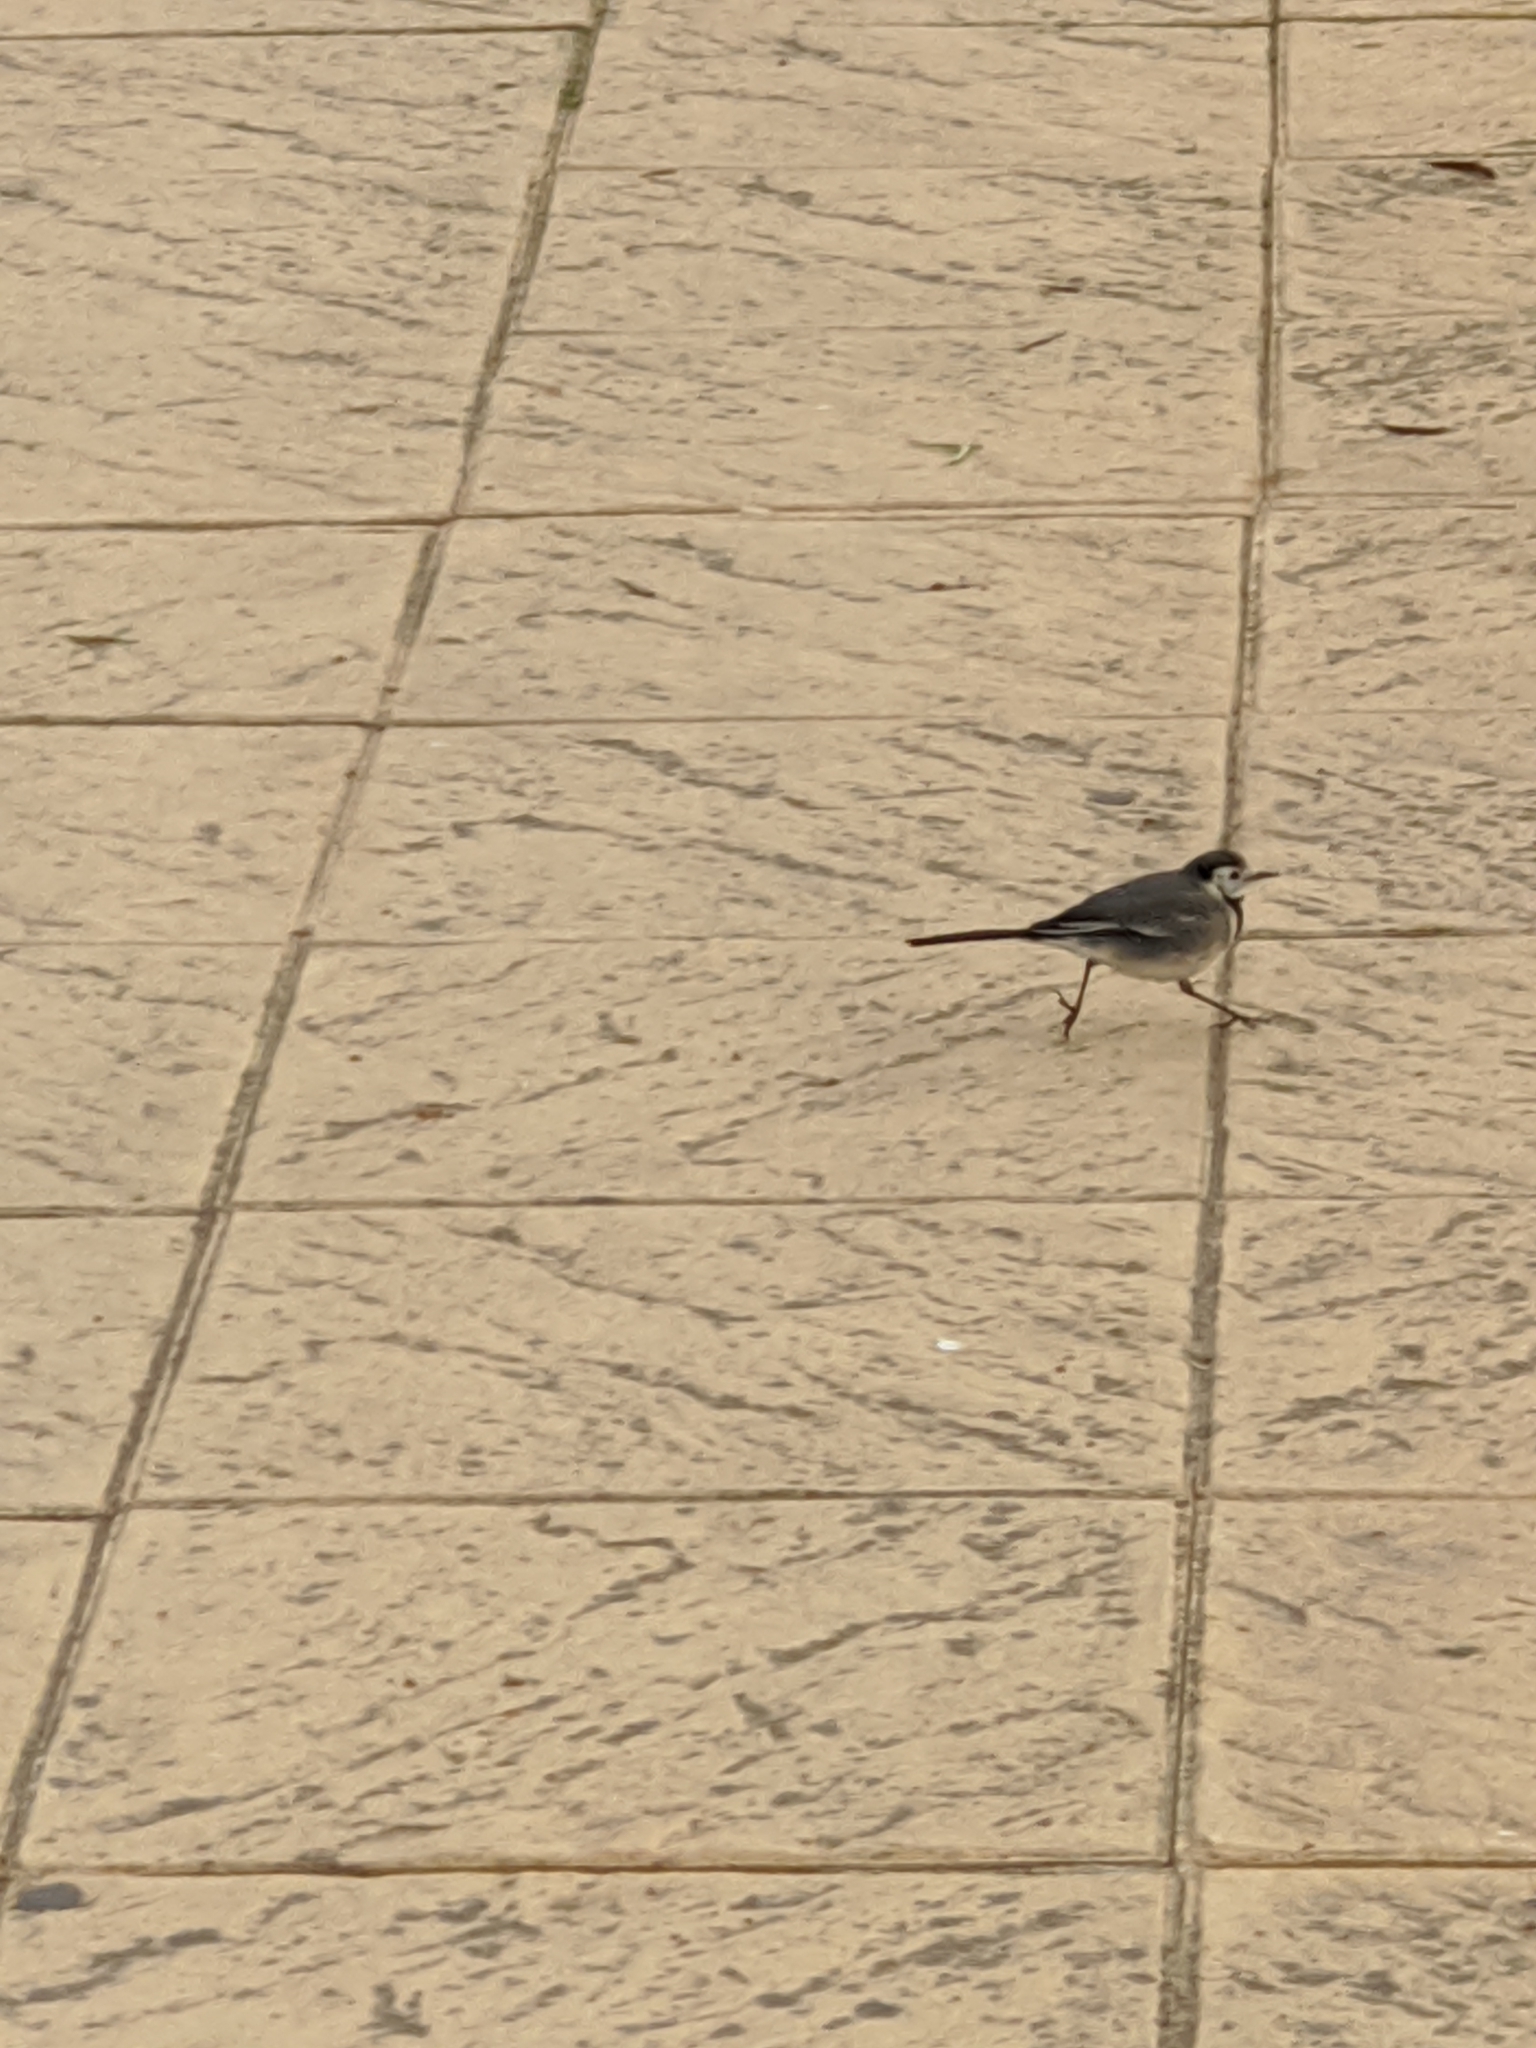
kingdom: Animalia
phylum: Chordata
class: Aves
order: Passeriformes
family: Motacillidae
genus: Motacilla
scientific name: Motacilla alba
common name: White wagtail
